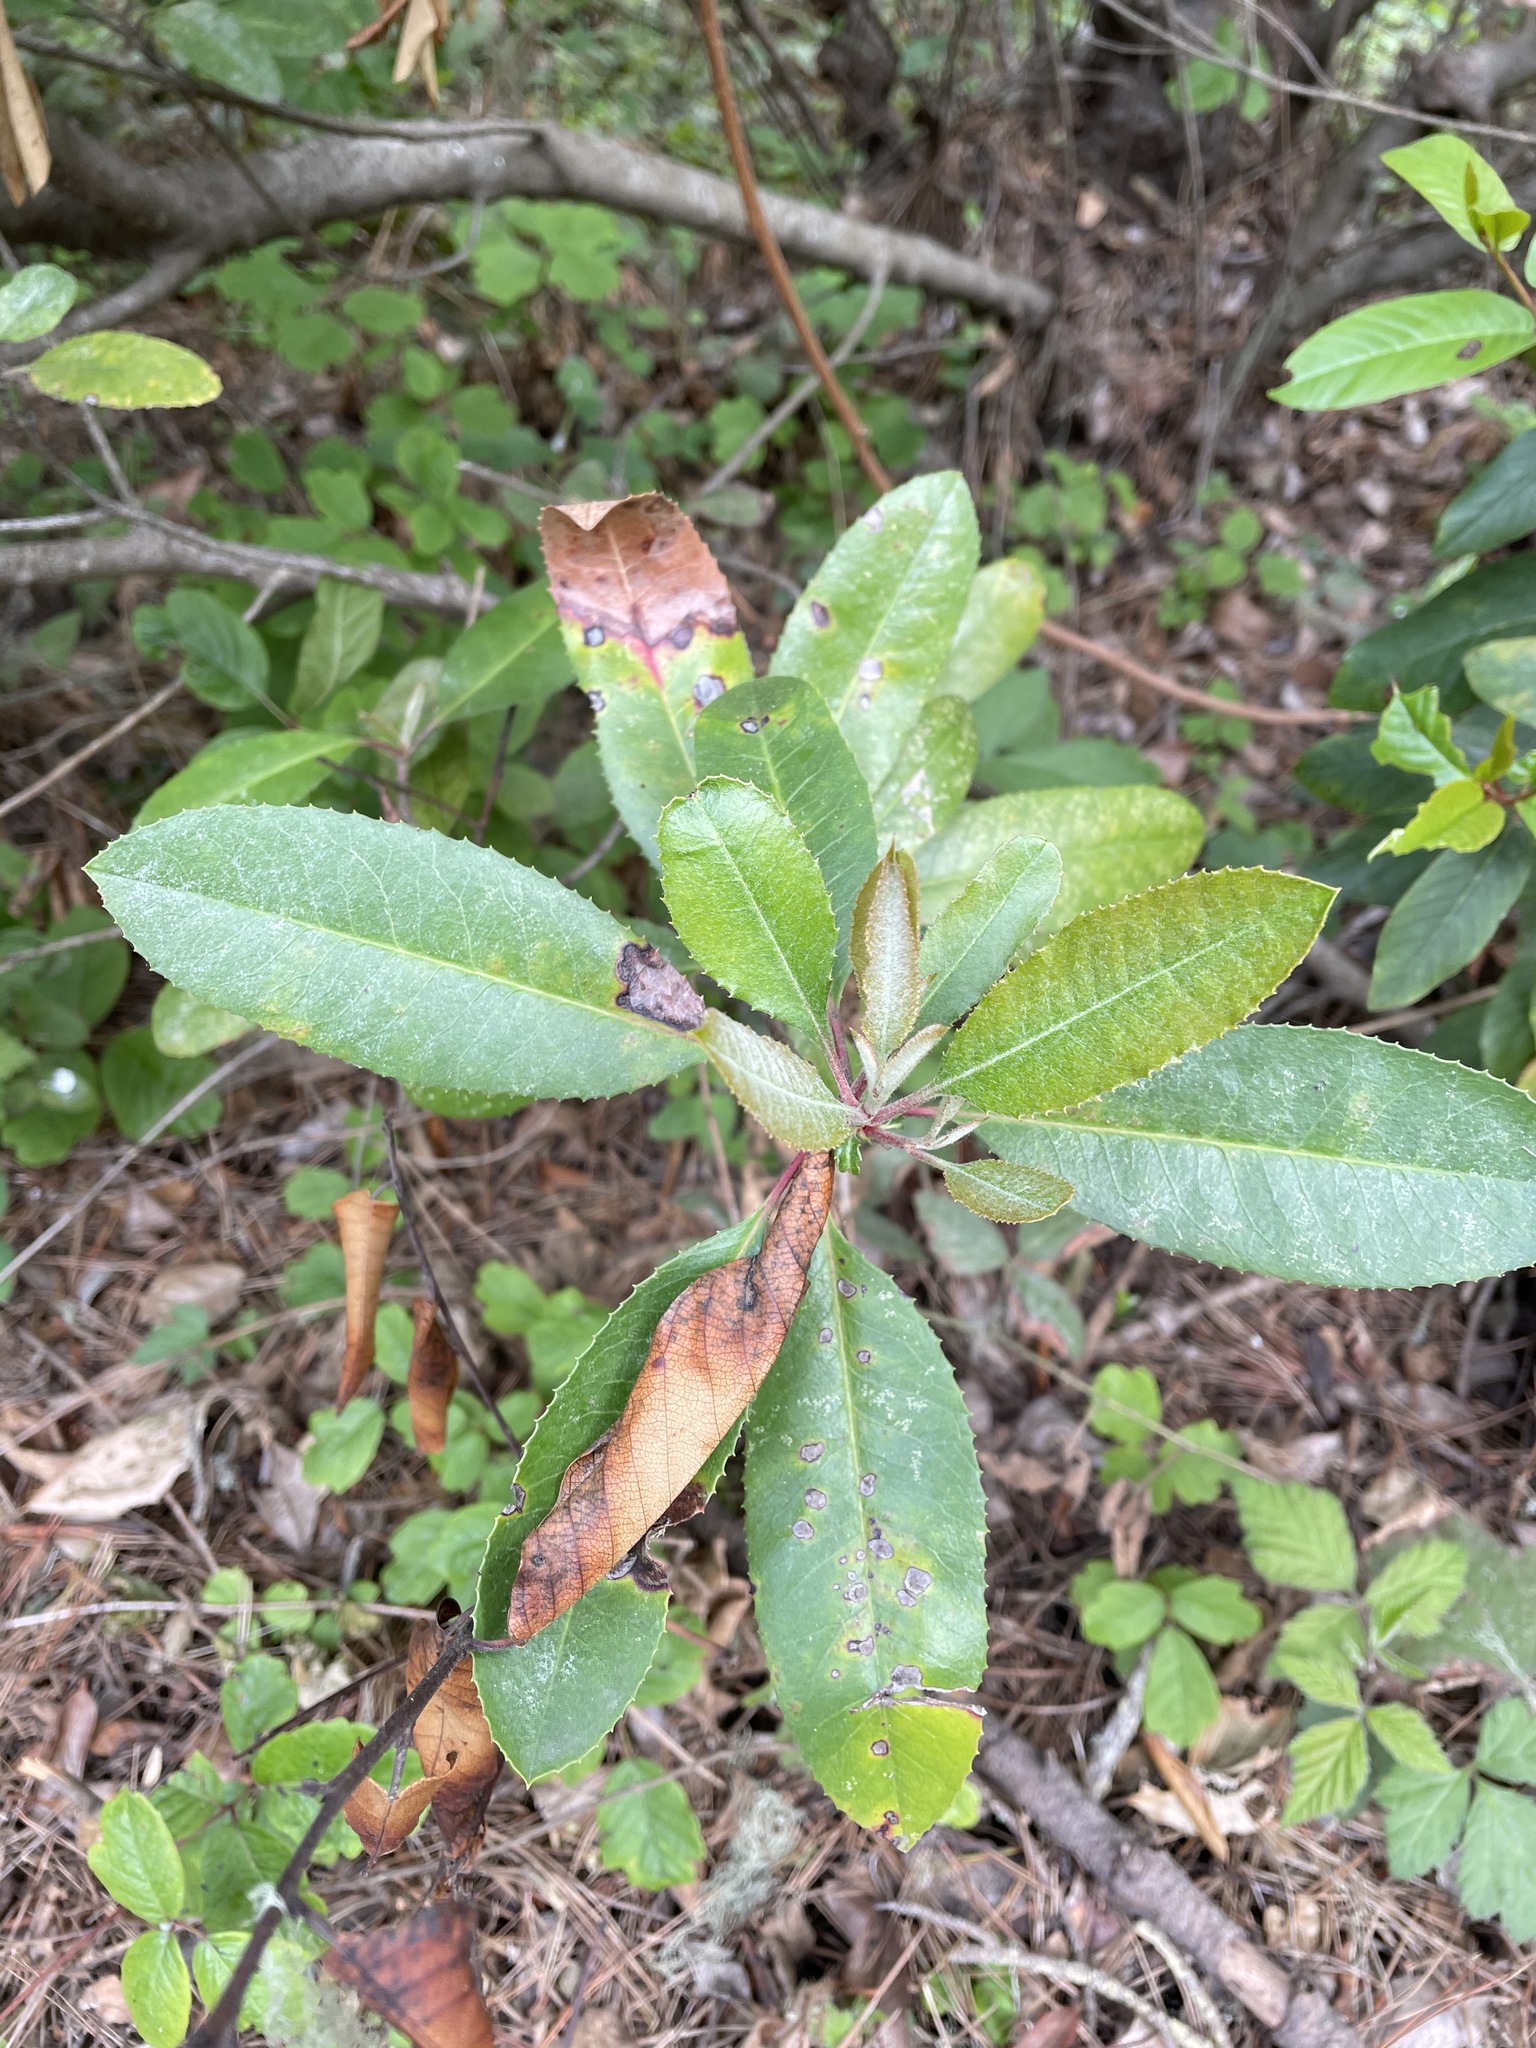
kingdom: Plantae
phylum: Tracheophyta
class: Magnoliopsida
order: Rosales
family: Rosaceae
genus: Heteromeles
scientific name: Heteromeles arbutifolia
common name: California-holly
